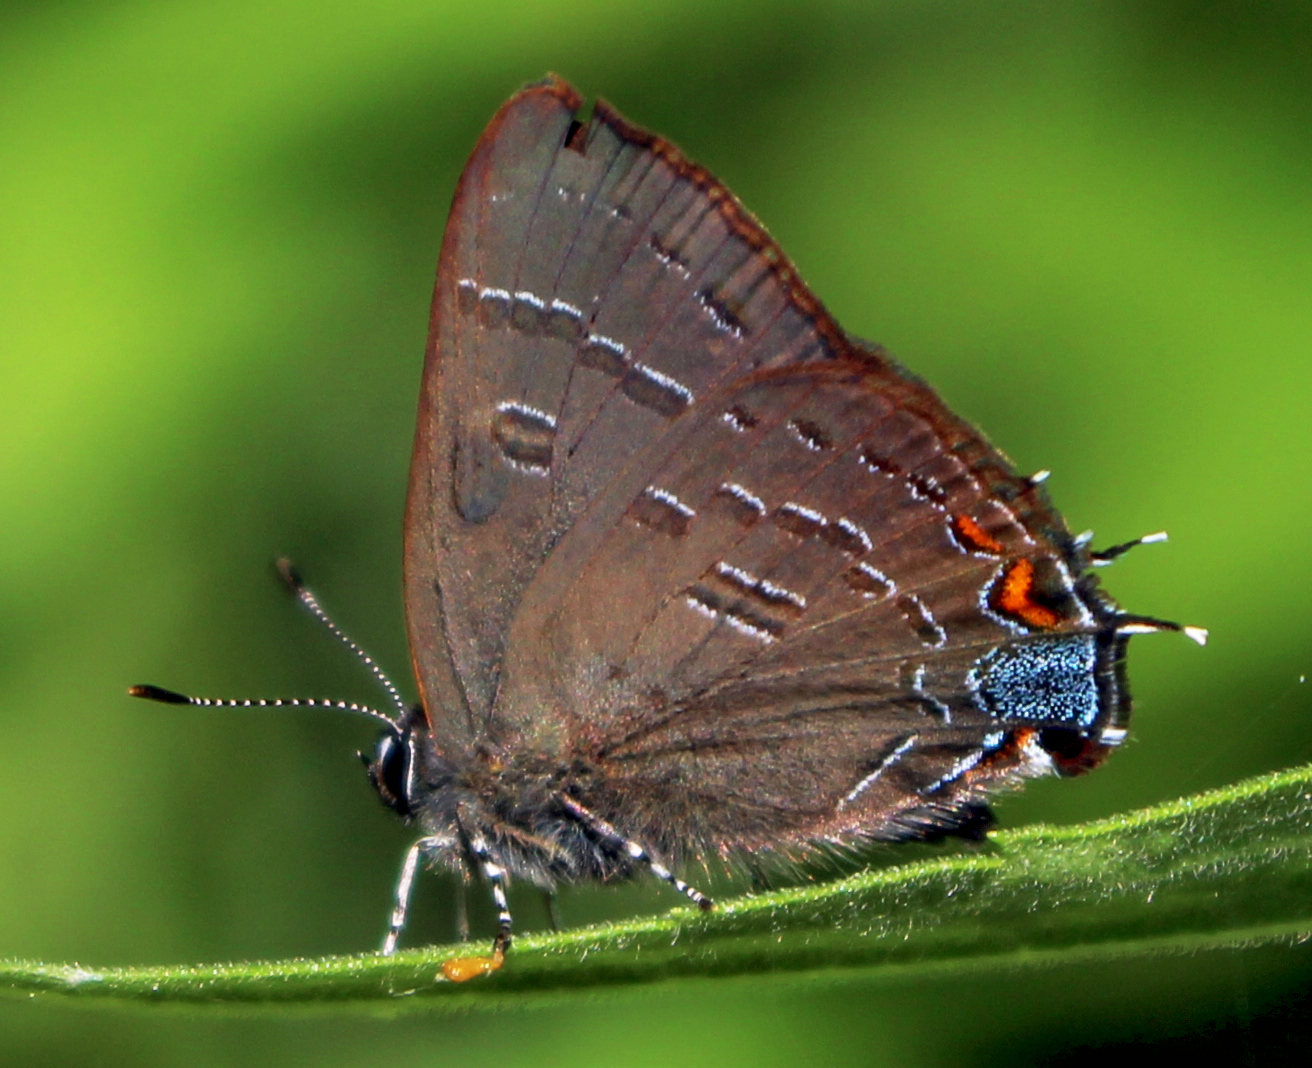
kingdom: Animalia
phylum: Arthropoda
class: Insecta
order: Lepidoptera
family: Lycaenidae
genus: Satyrium
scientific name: Satyrium calanus
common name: Banded hairstreak
